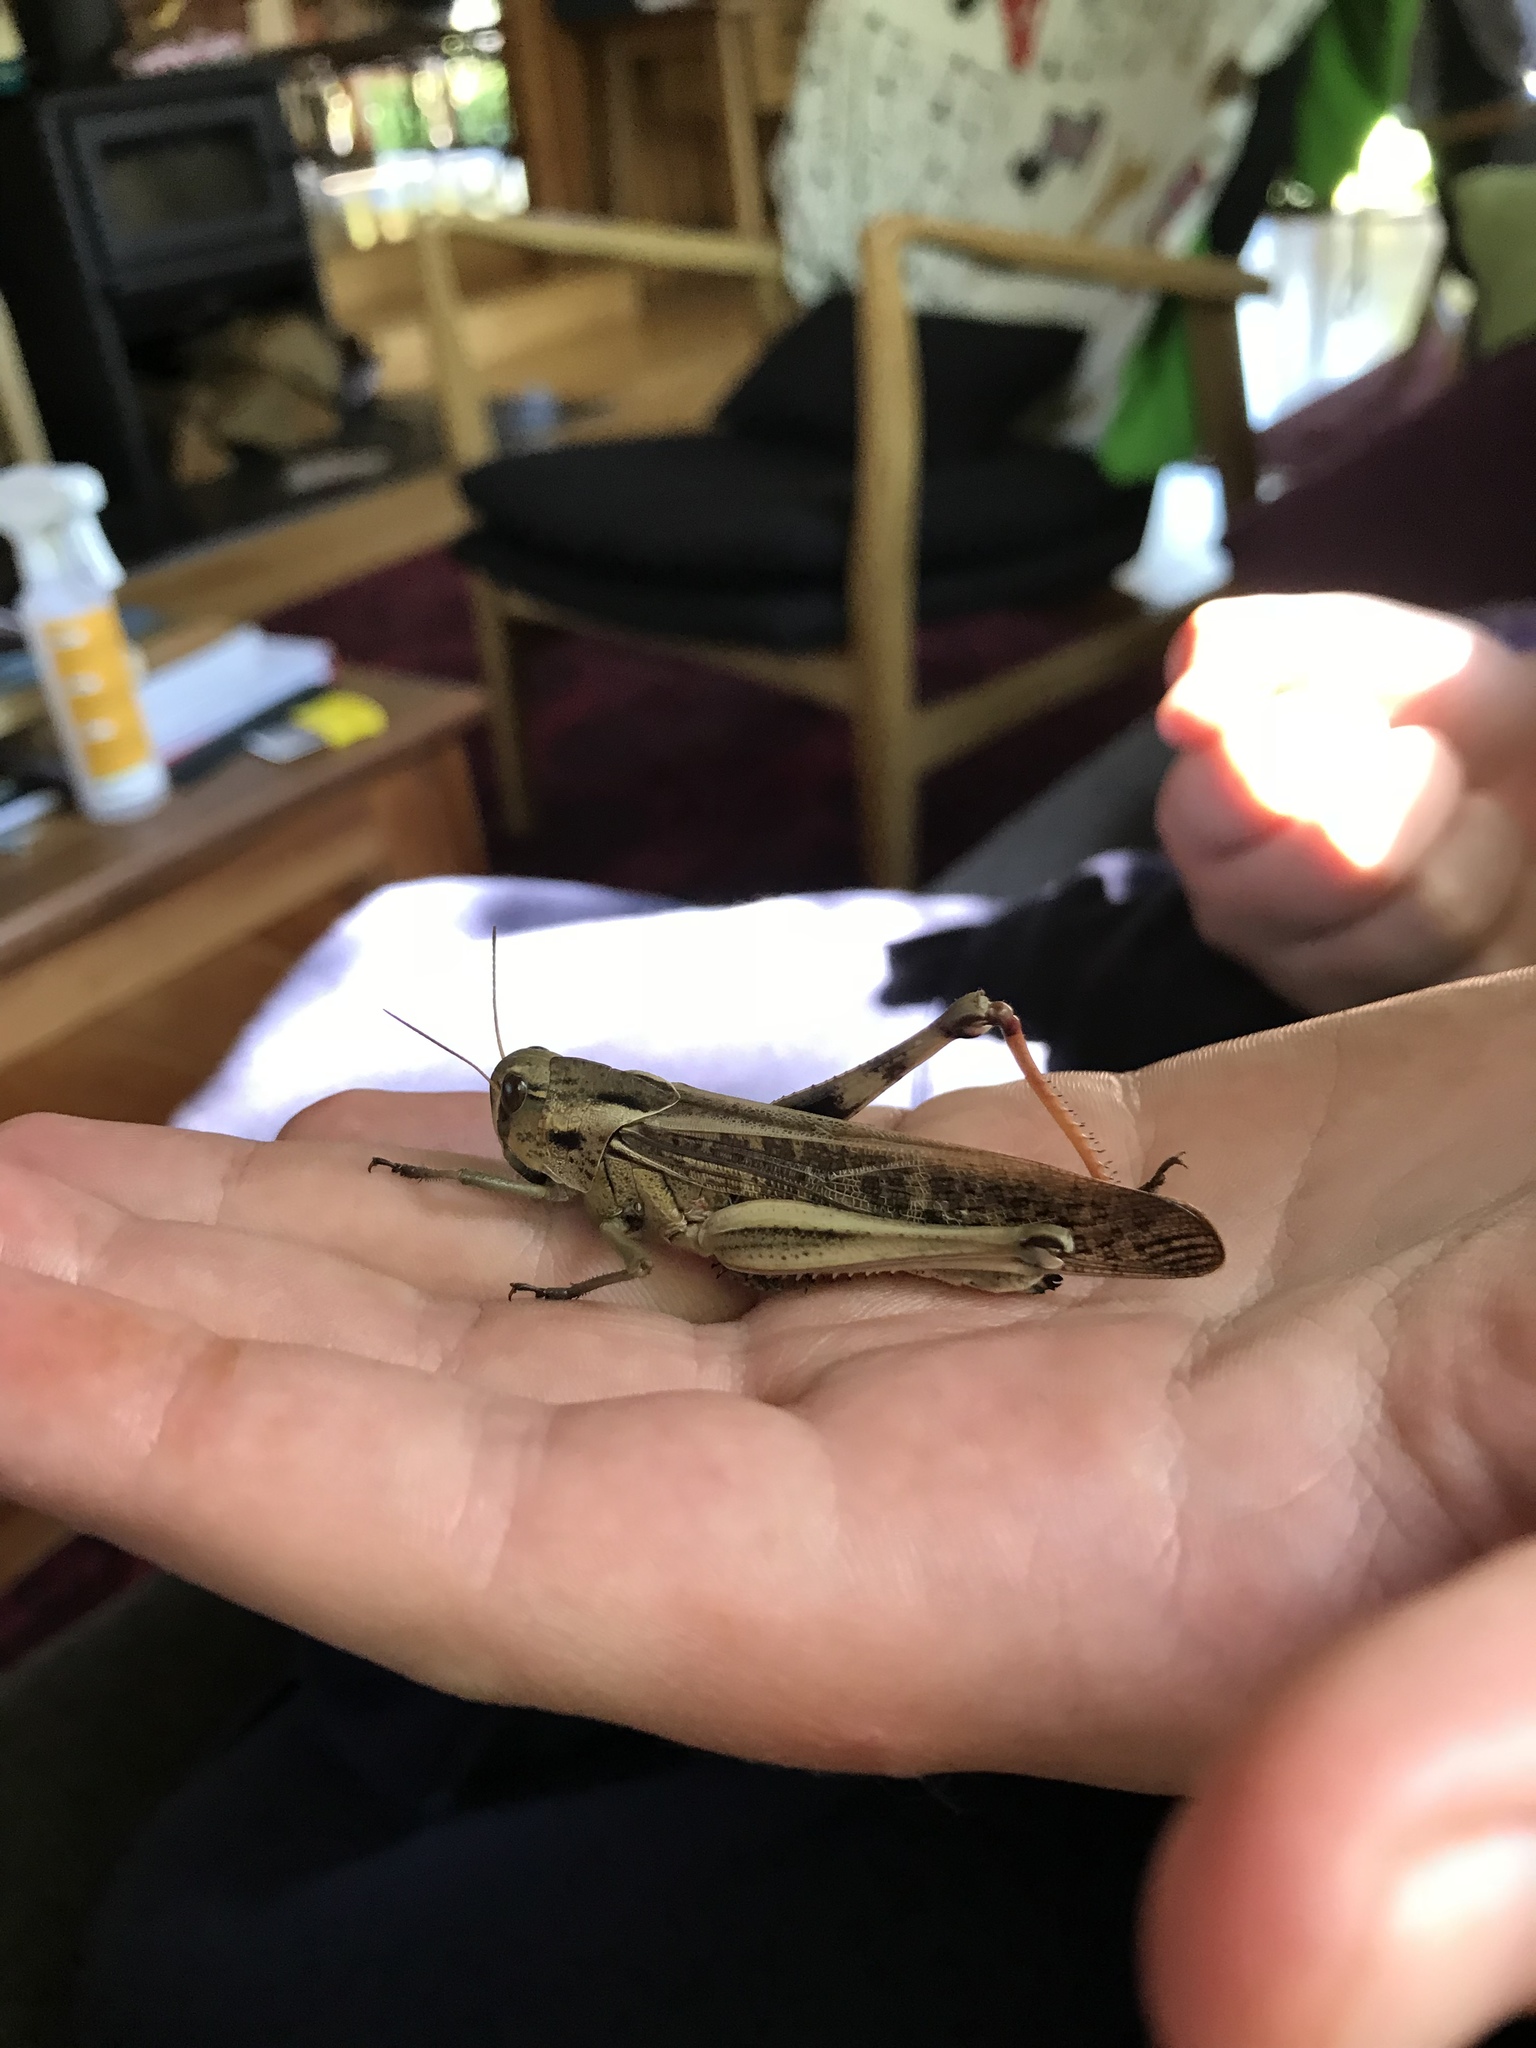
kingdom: Animalia
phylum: Arthropoda
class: Insecta
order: Orthoptera
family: Acrididae
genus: Locusta
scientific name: Locusta migratoria
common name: Migratory locust
